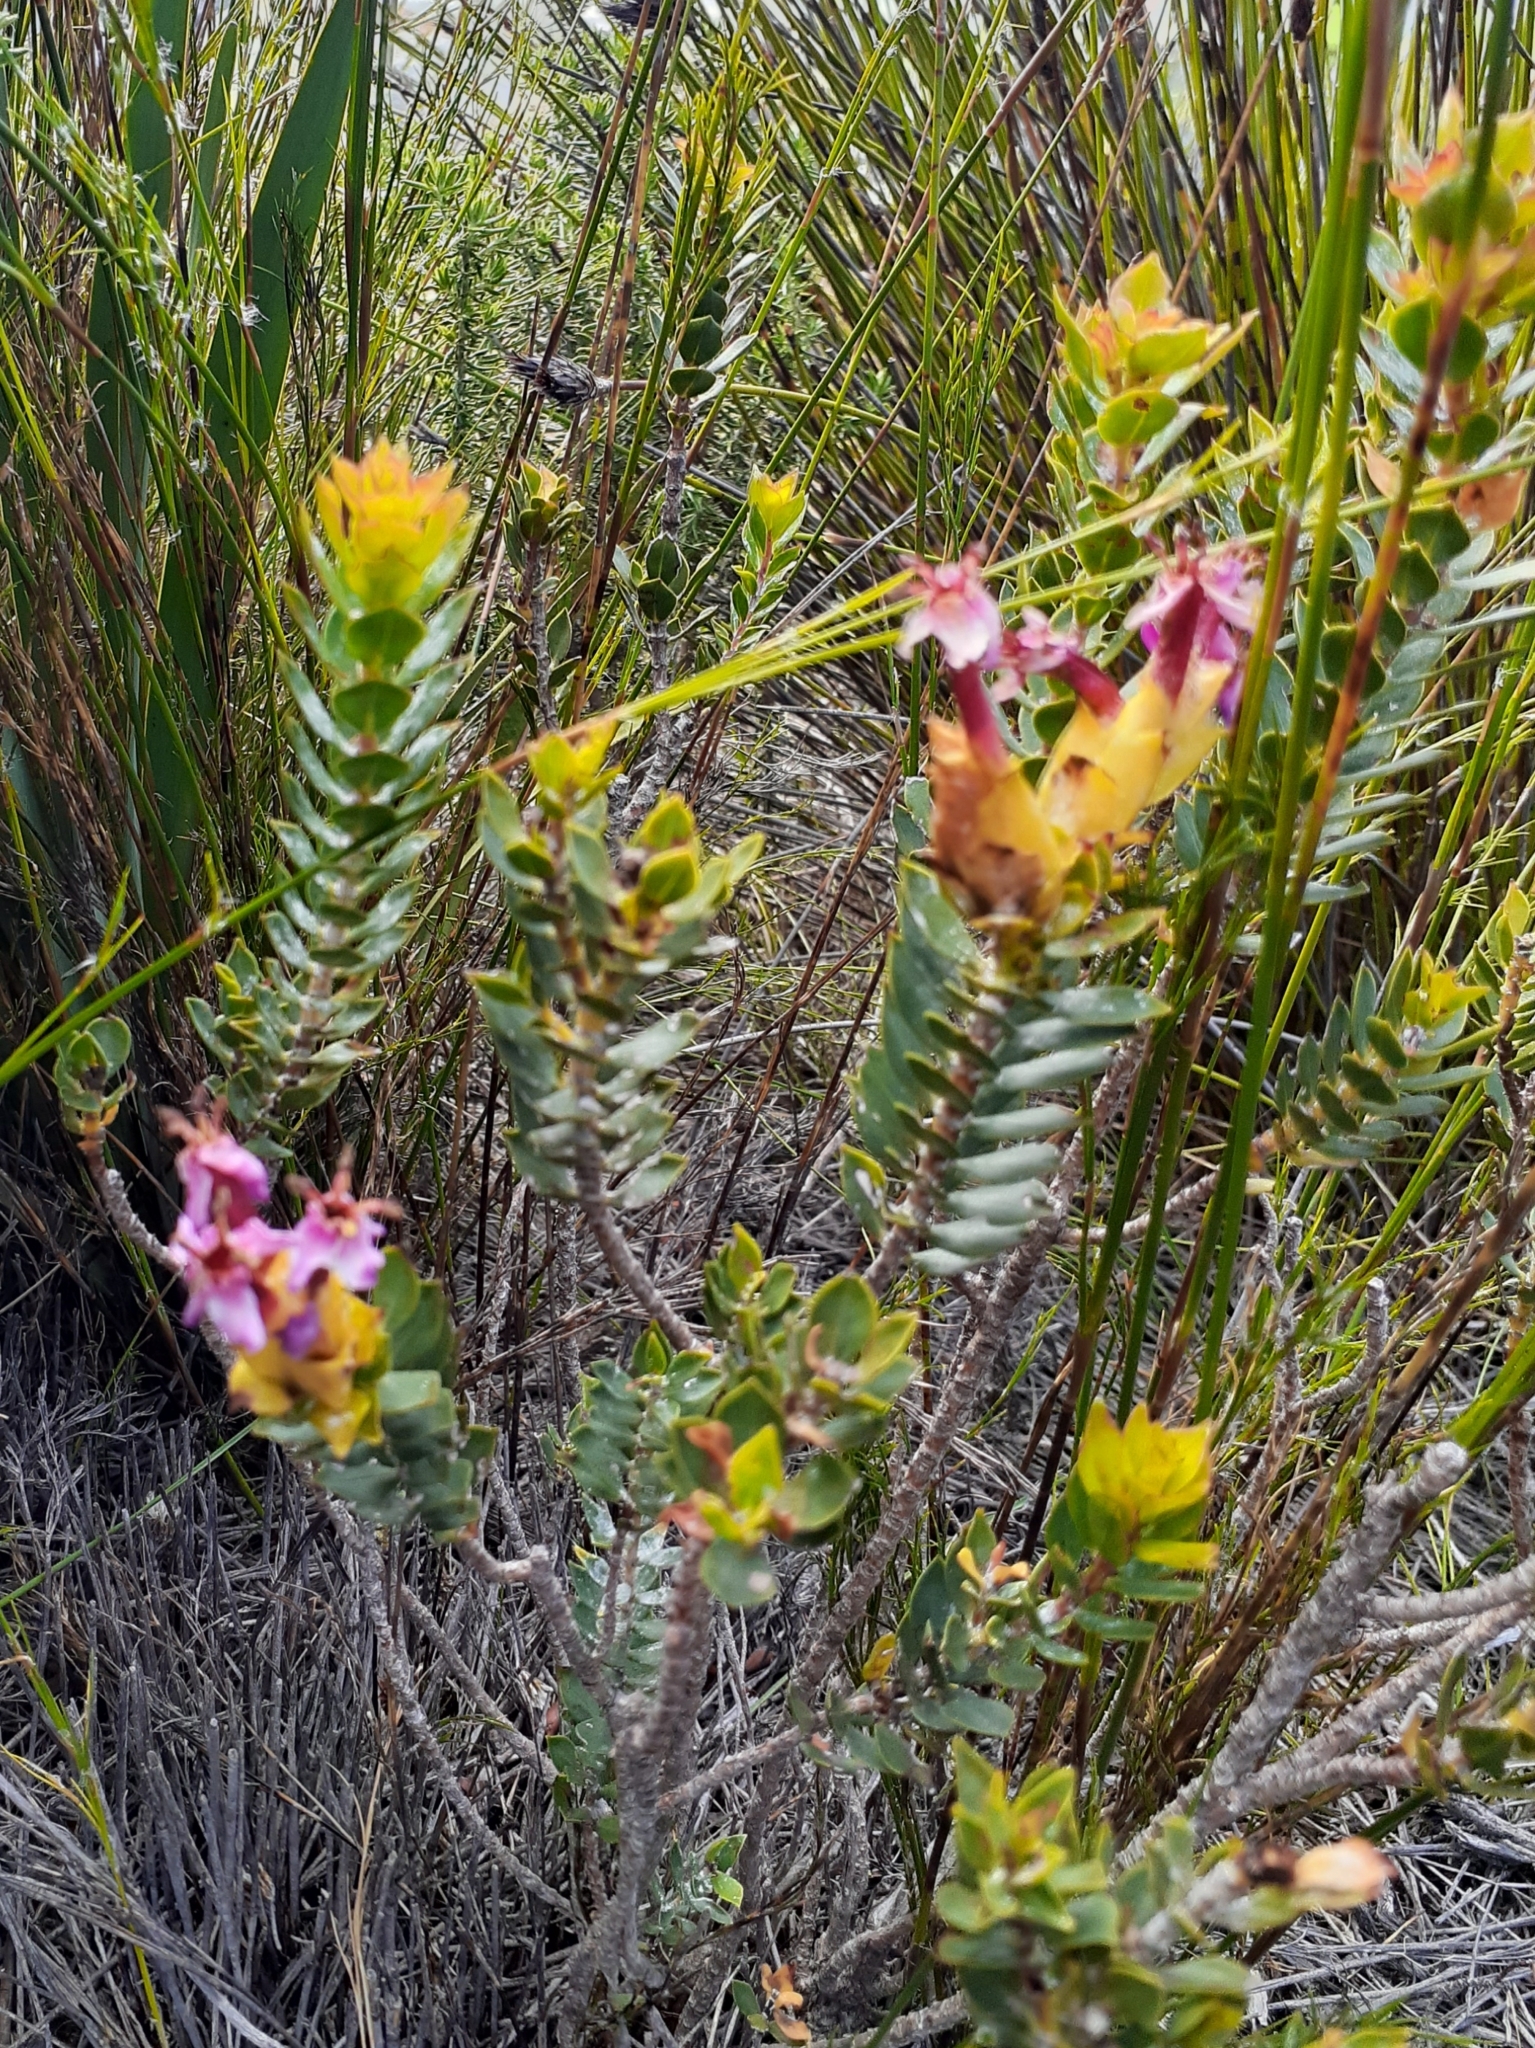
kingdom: Plantae
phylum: Tracheophyta
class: Magnoliopsida
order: Myrtales
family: Penaeaceae
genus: Saltera
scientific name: Saltera sarcocolla
